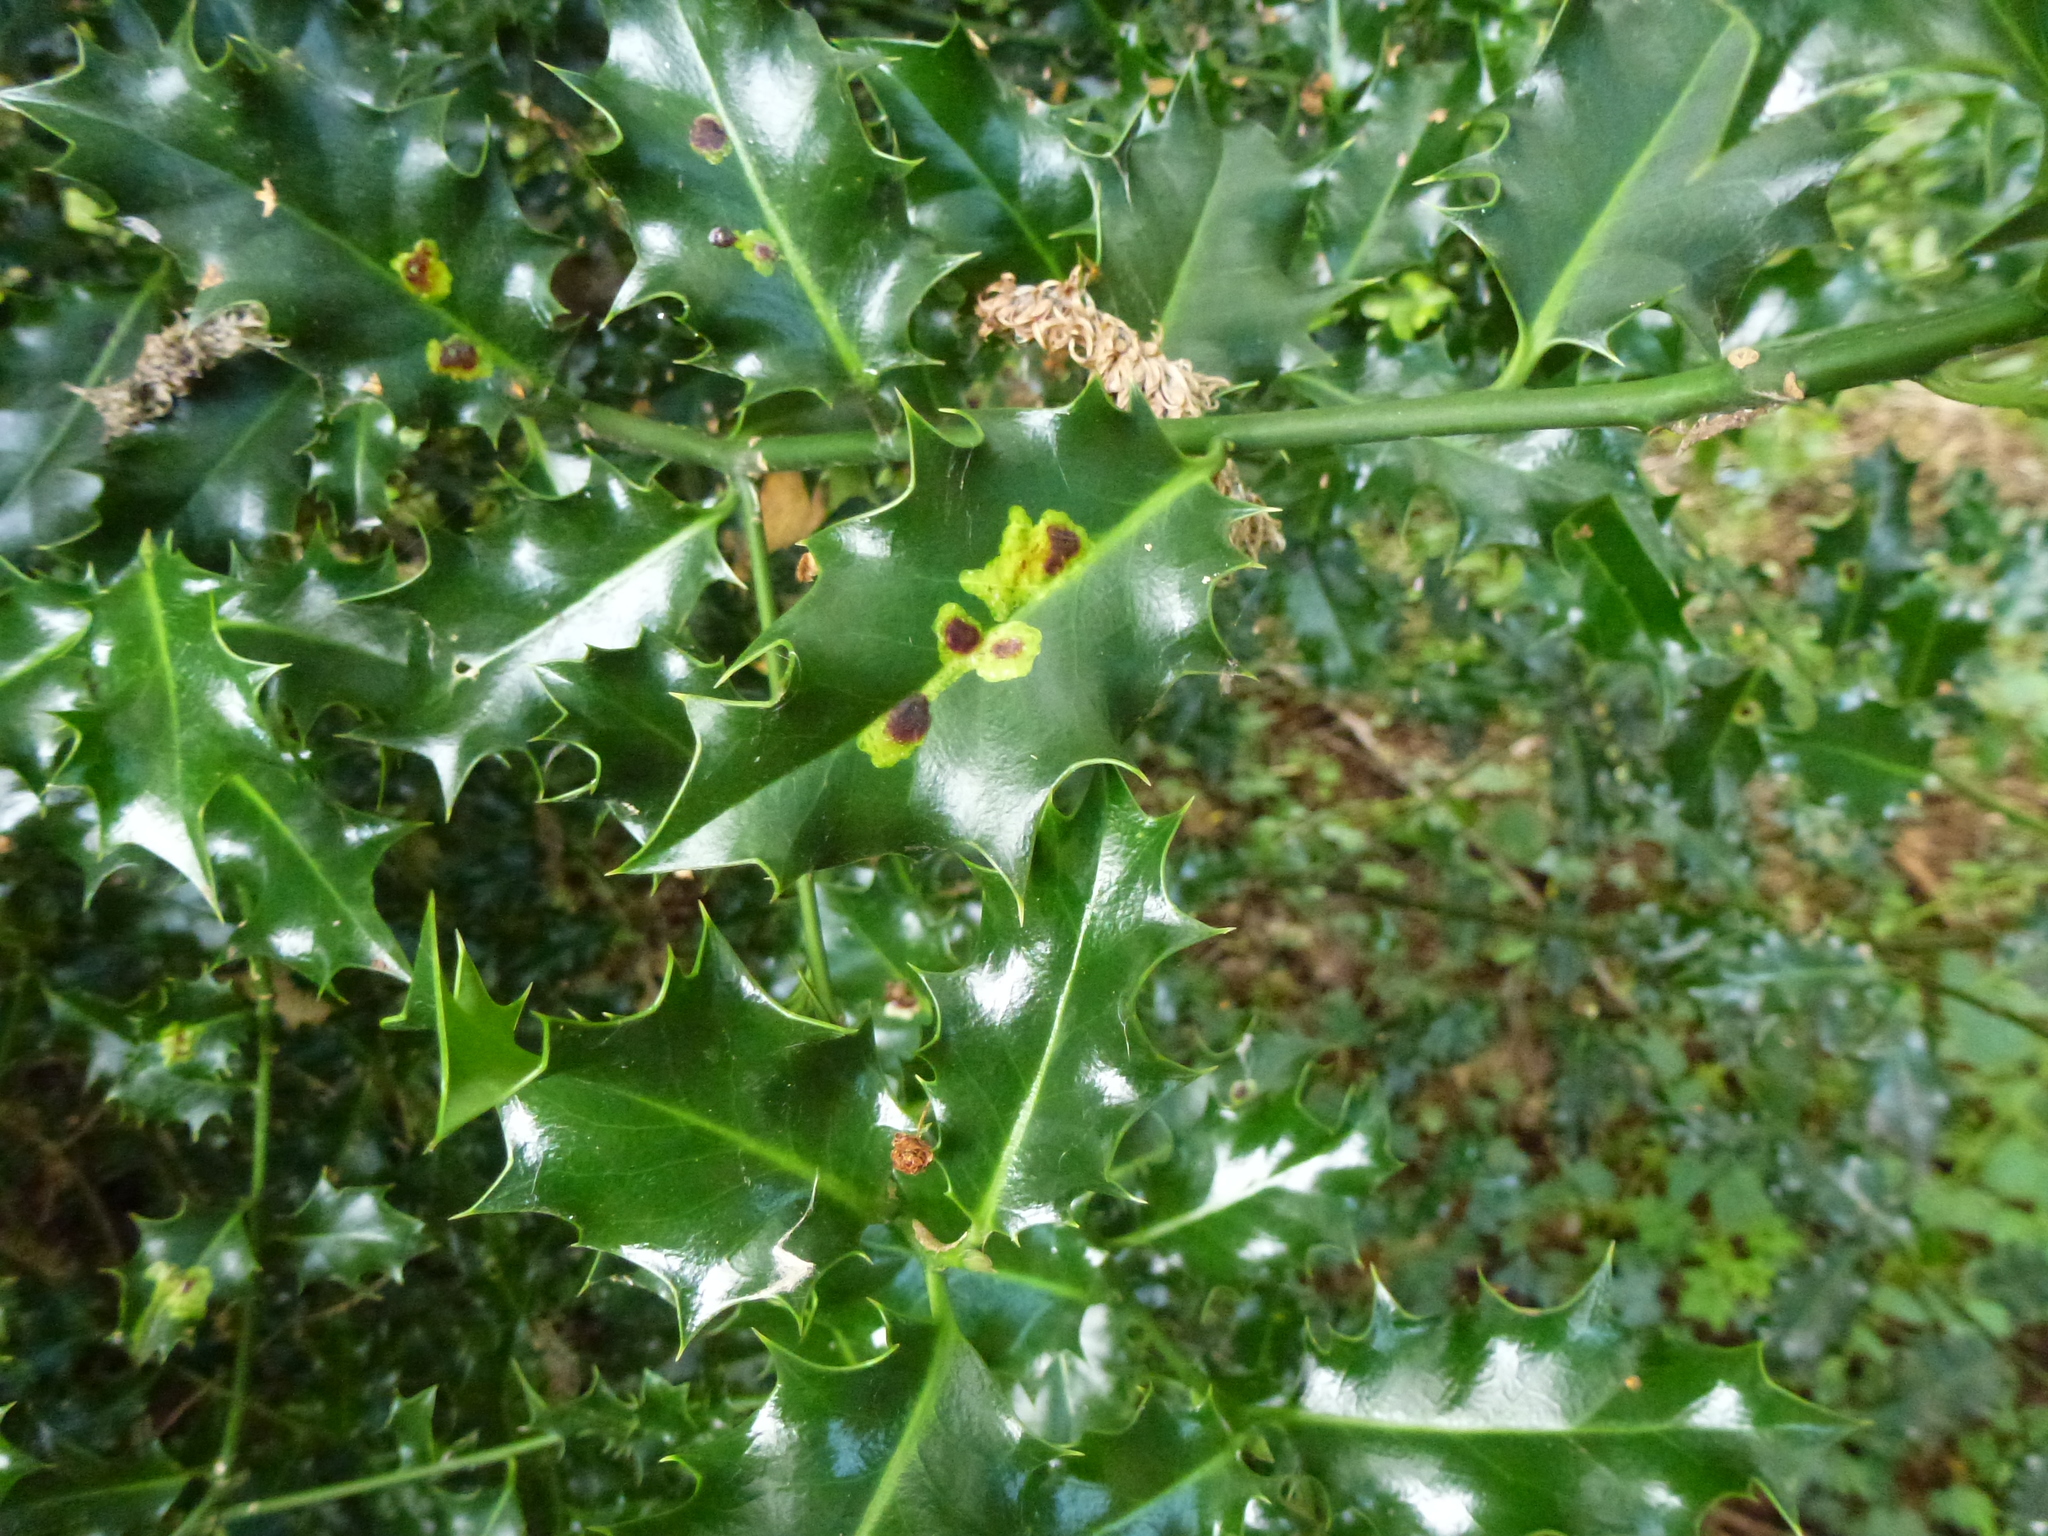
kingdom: Animalia
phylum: Arthropoda
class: Insecta
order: Diptera
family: Agromyzidae
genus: Phytomyza
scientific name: Phytomyza ilicis
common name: Holly leafminer
